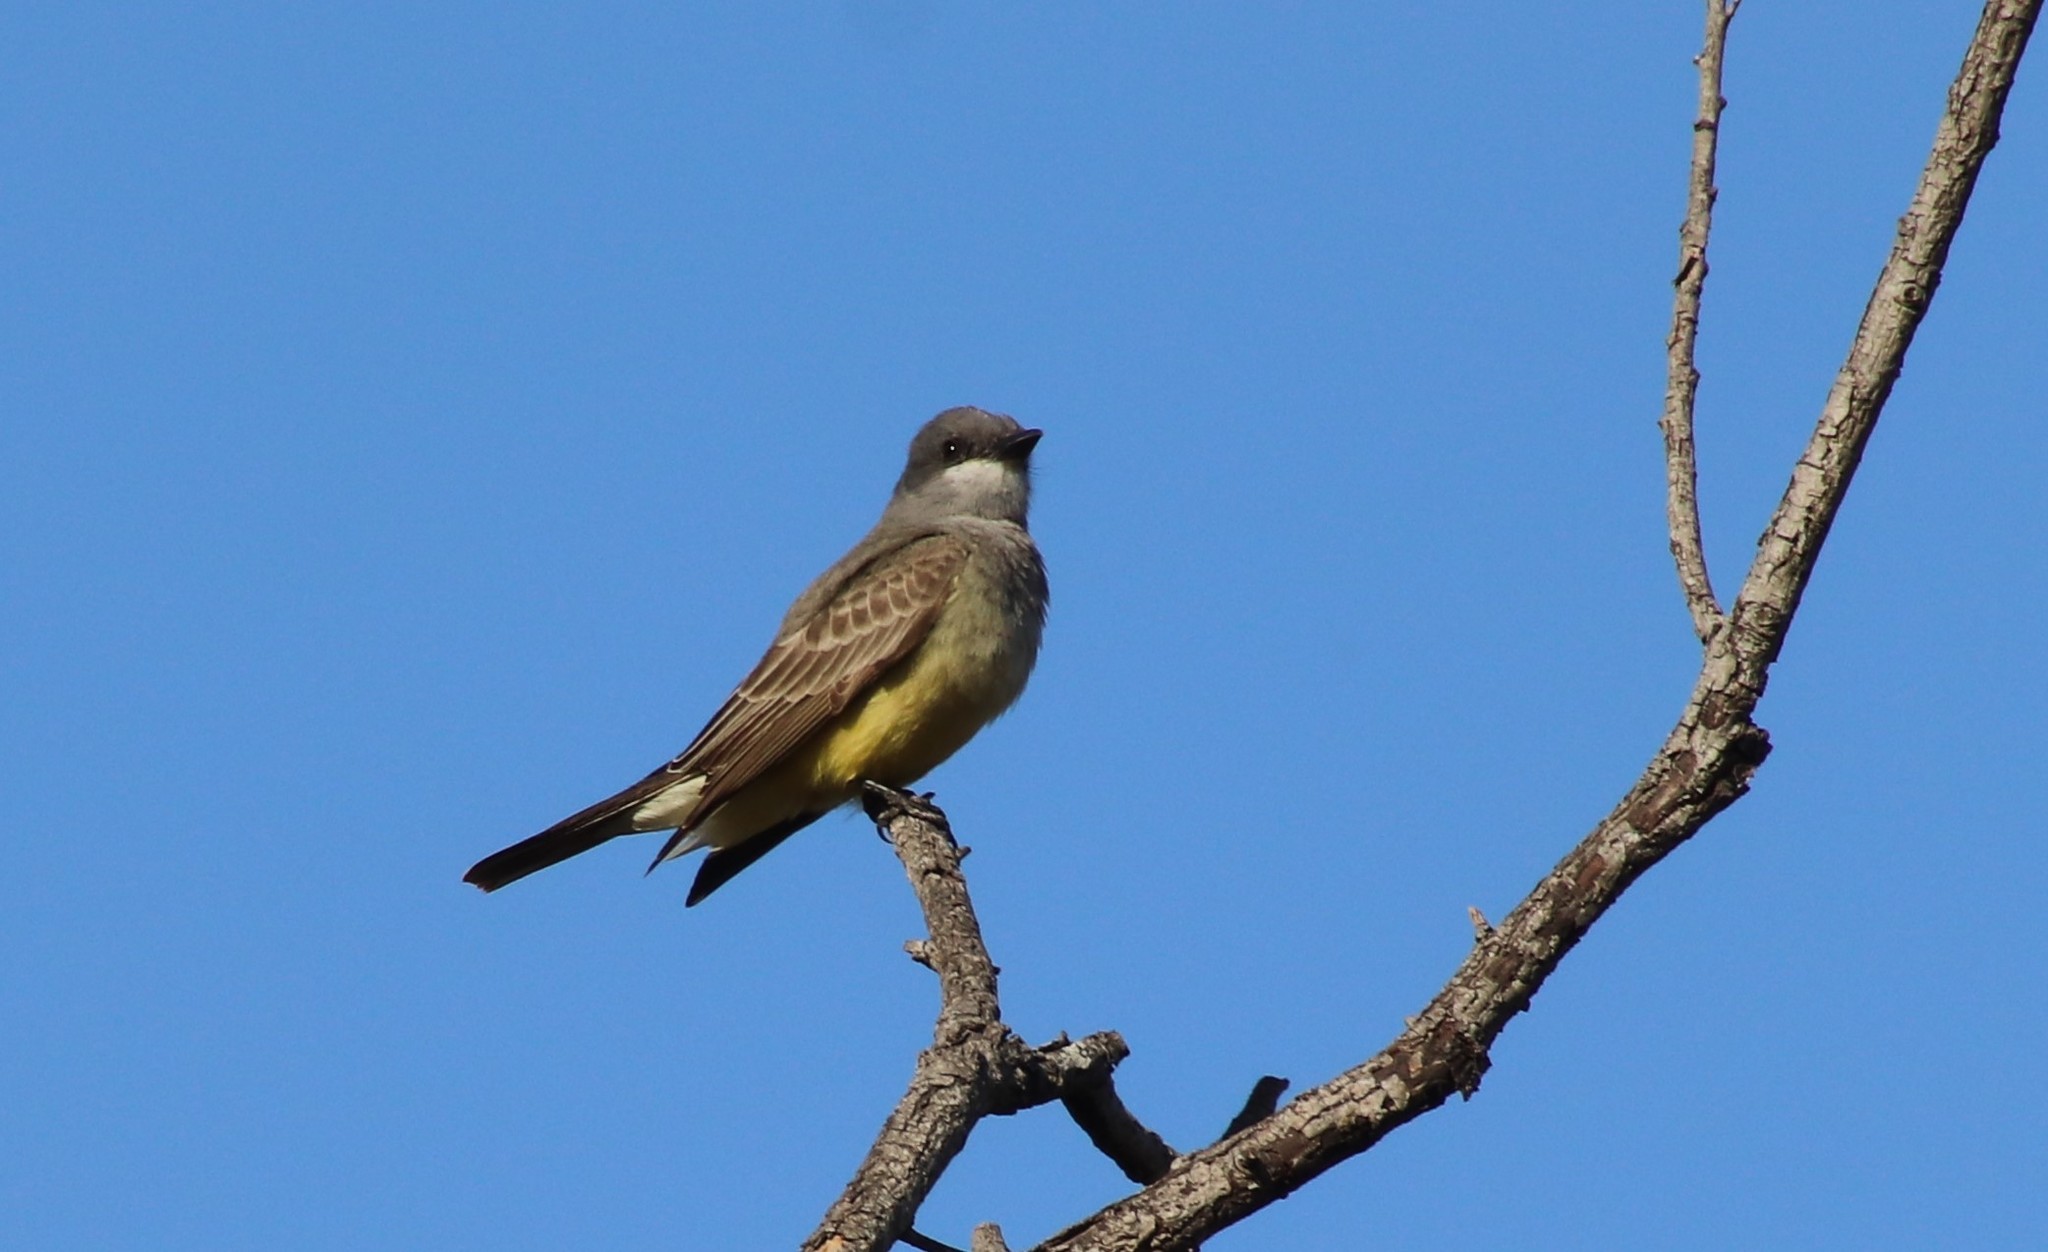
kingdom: Animalia
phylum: Chordata
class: Aves
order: Passeriformes
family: Tyrannidae
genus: Tyrannus
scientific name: Tyrannus vociferans
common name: Cassin's kingbird
